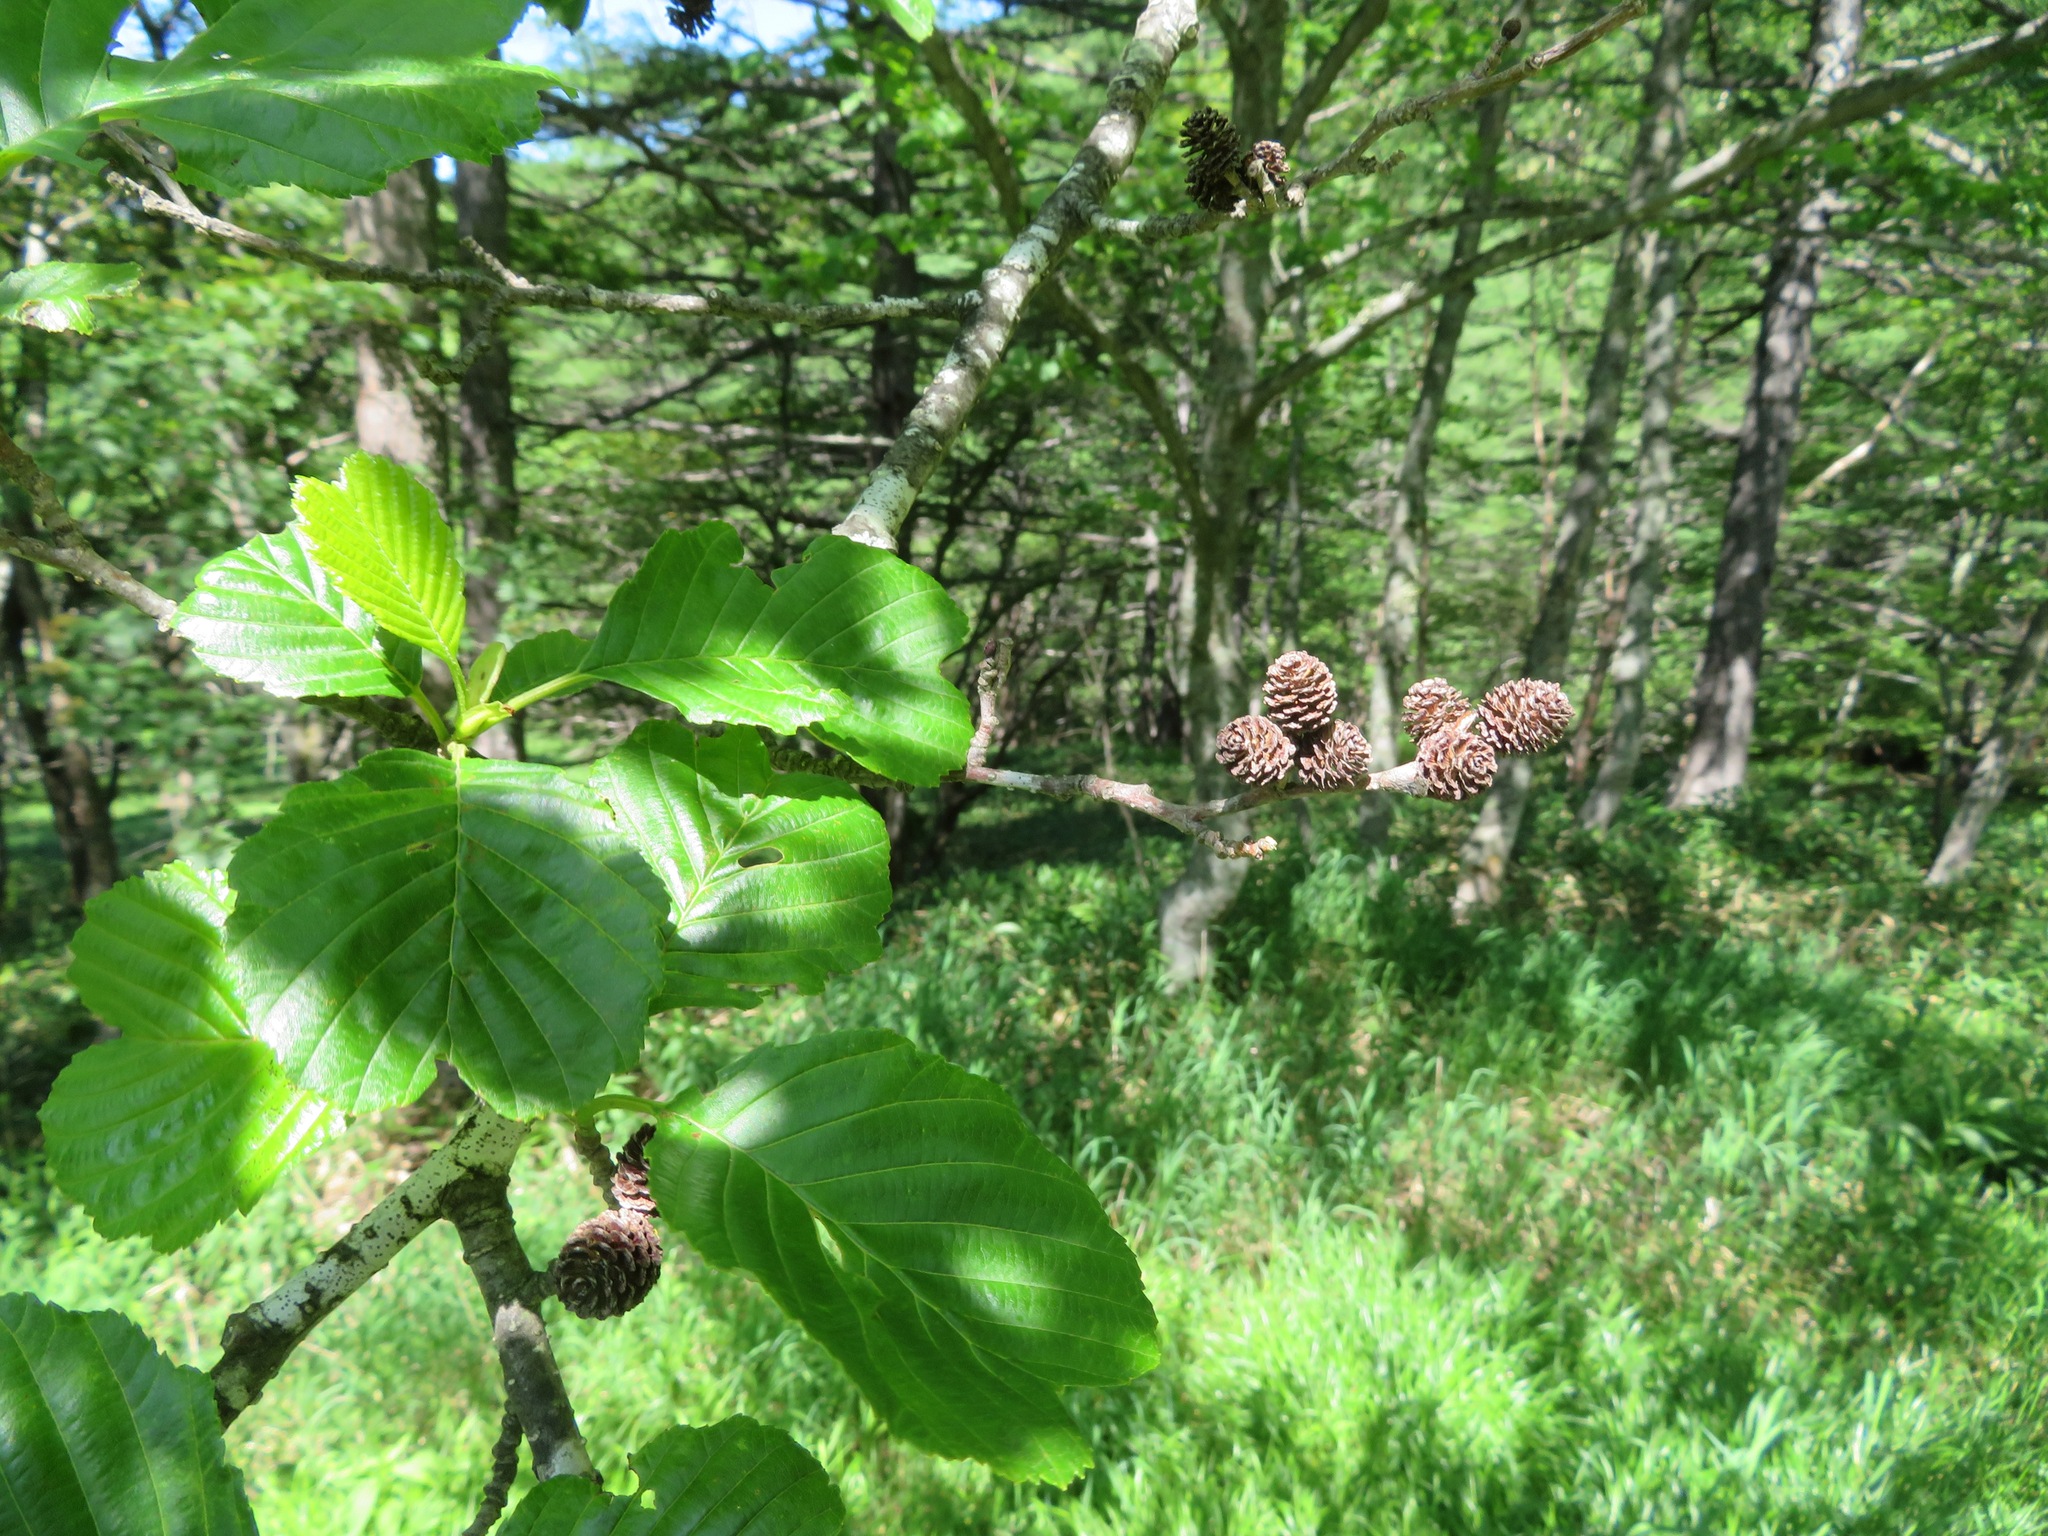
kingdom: Plantae
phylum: Tracheophyta
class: Magnoliopsida
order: Fagales
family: Betulaceae
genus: Alnus
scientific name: Alnus fauriei
